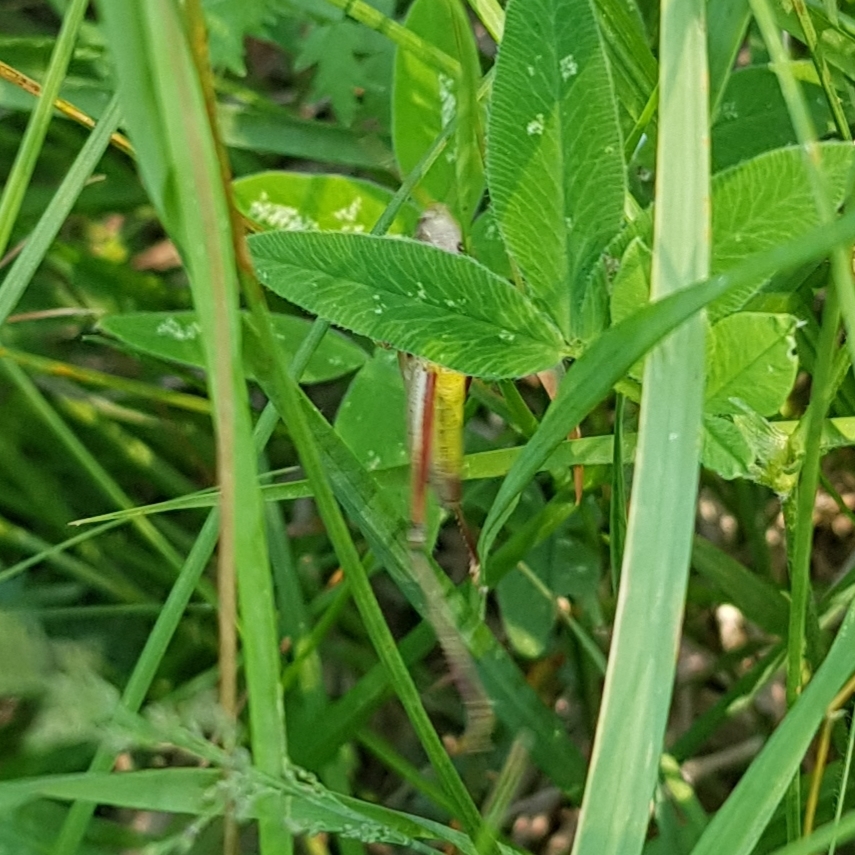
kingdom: Animalia
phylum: Arthropoda
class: Insecta
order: Orthoptera
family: Acrididae
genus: Chrysochraon
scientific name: Chrysochraon dispar
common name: Large gold grasshopper
